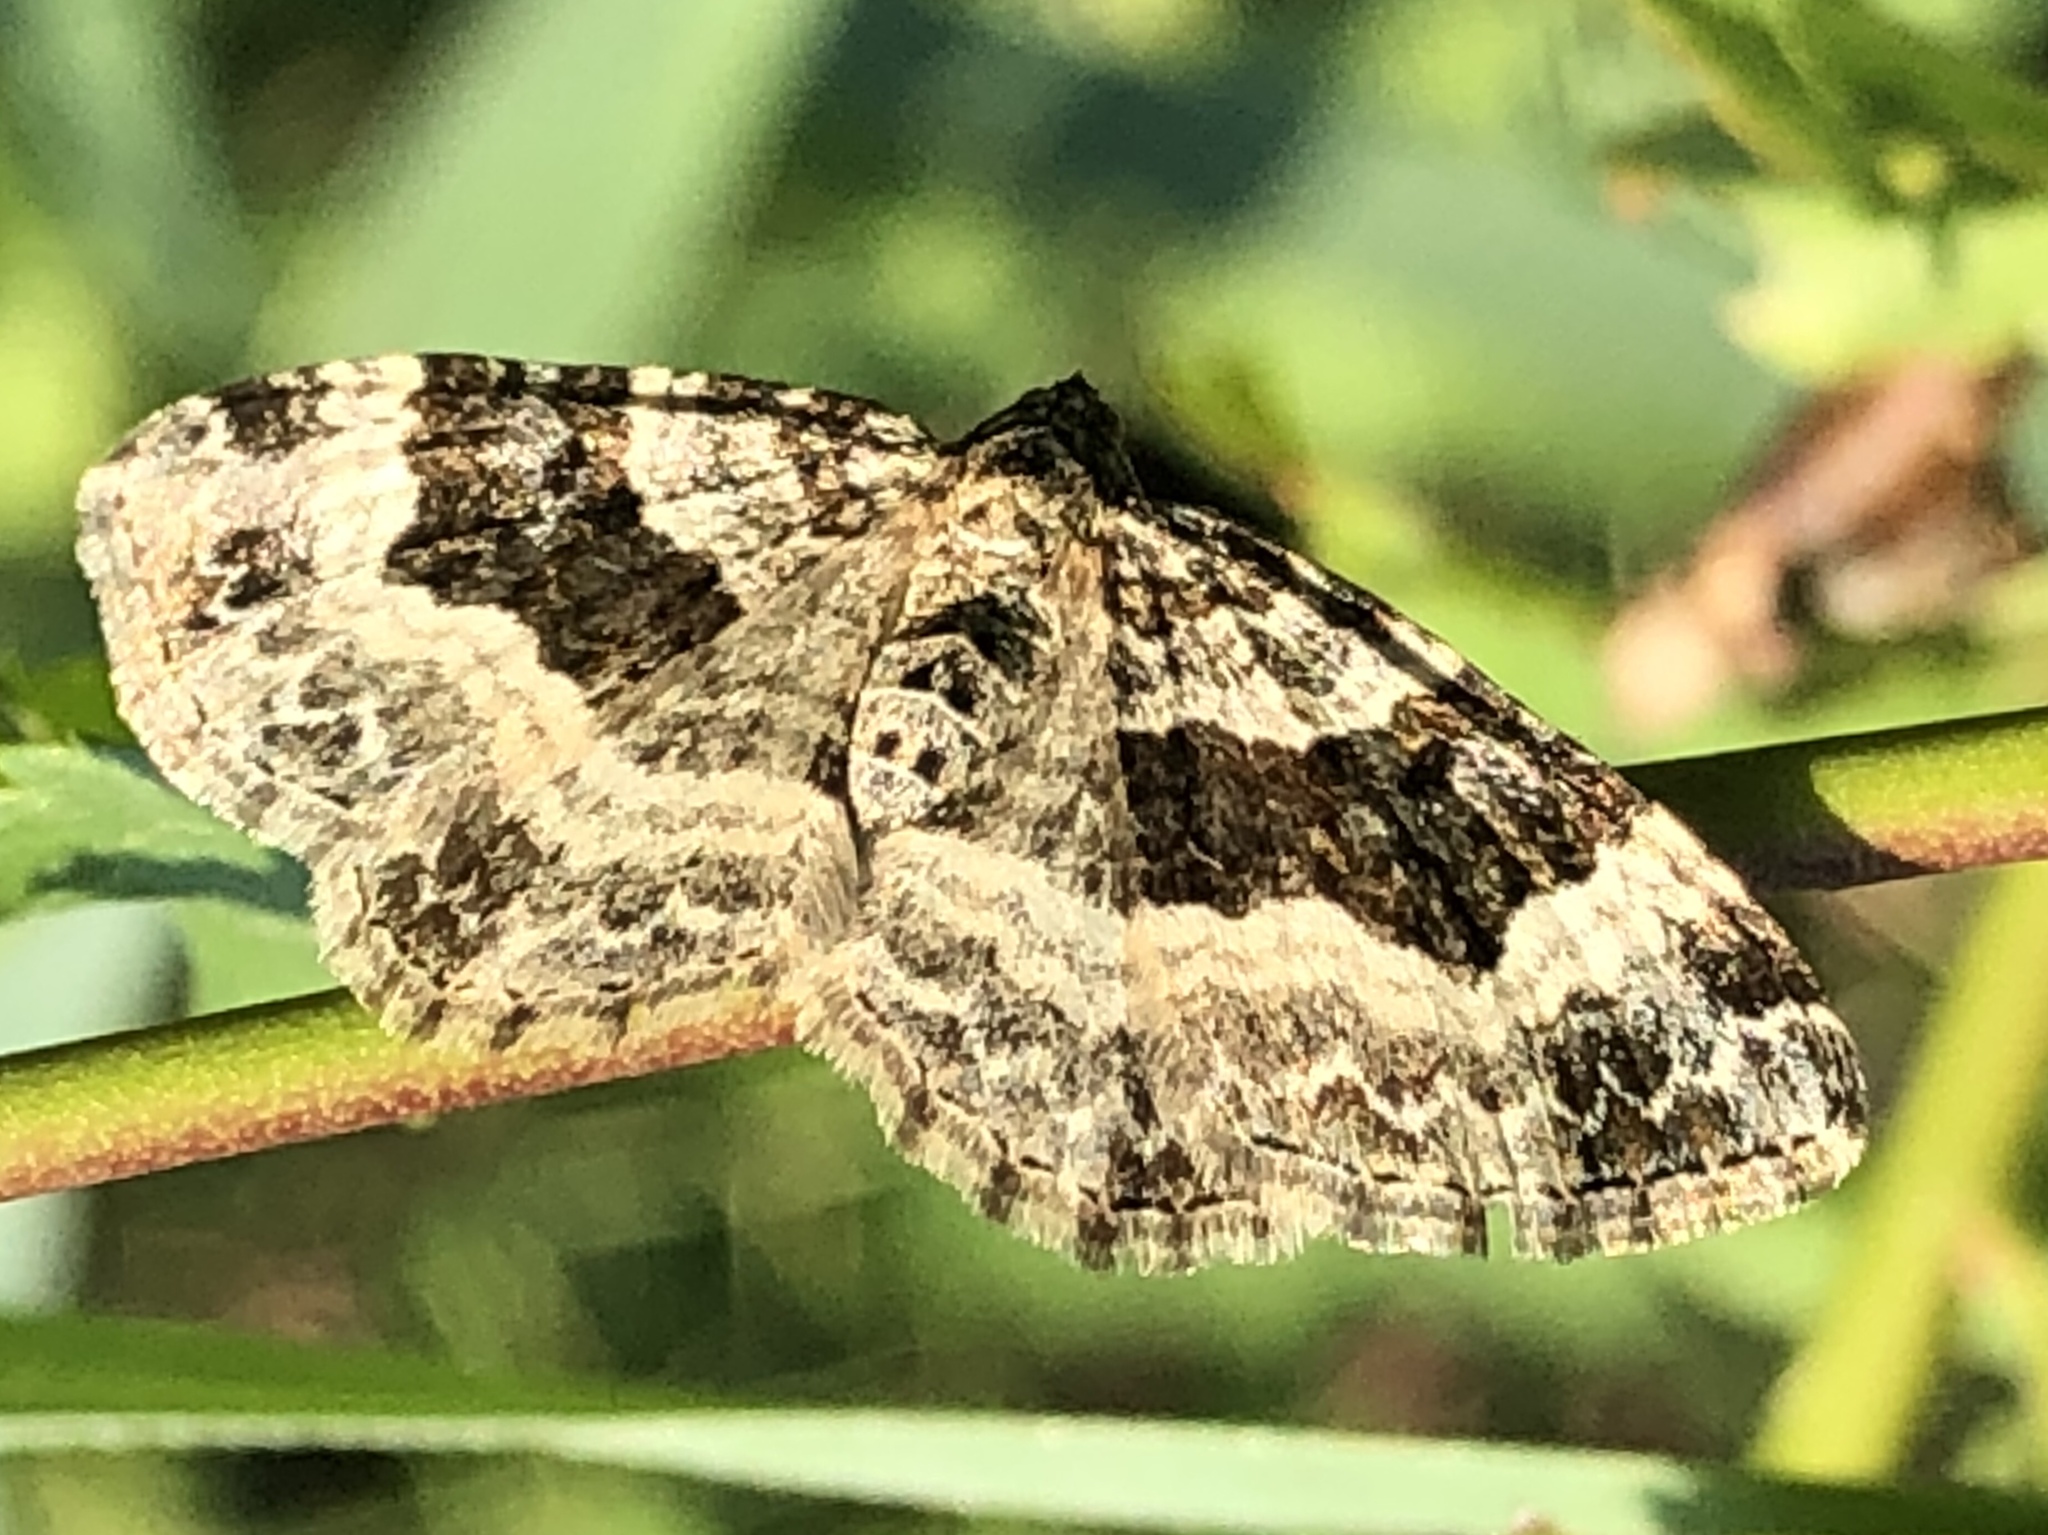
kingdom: Animalia
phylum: Arthropoda
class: Insecta
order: Lepidoptera
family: Geometridae
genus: Epirrhoe
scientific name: Epirrhoe alternata
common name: Common carpet
